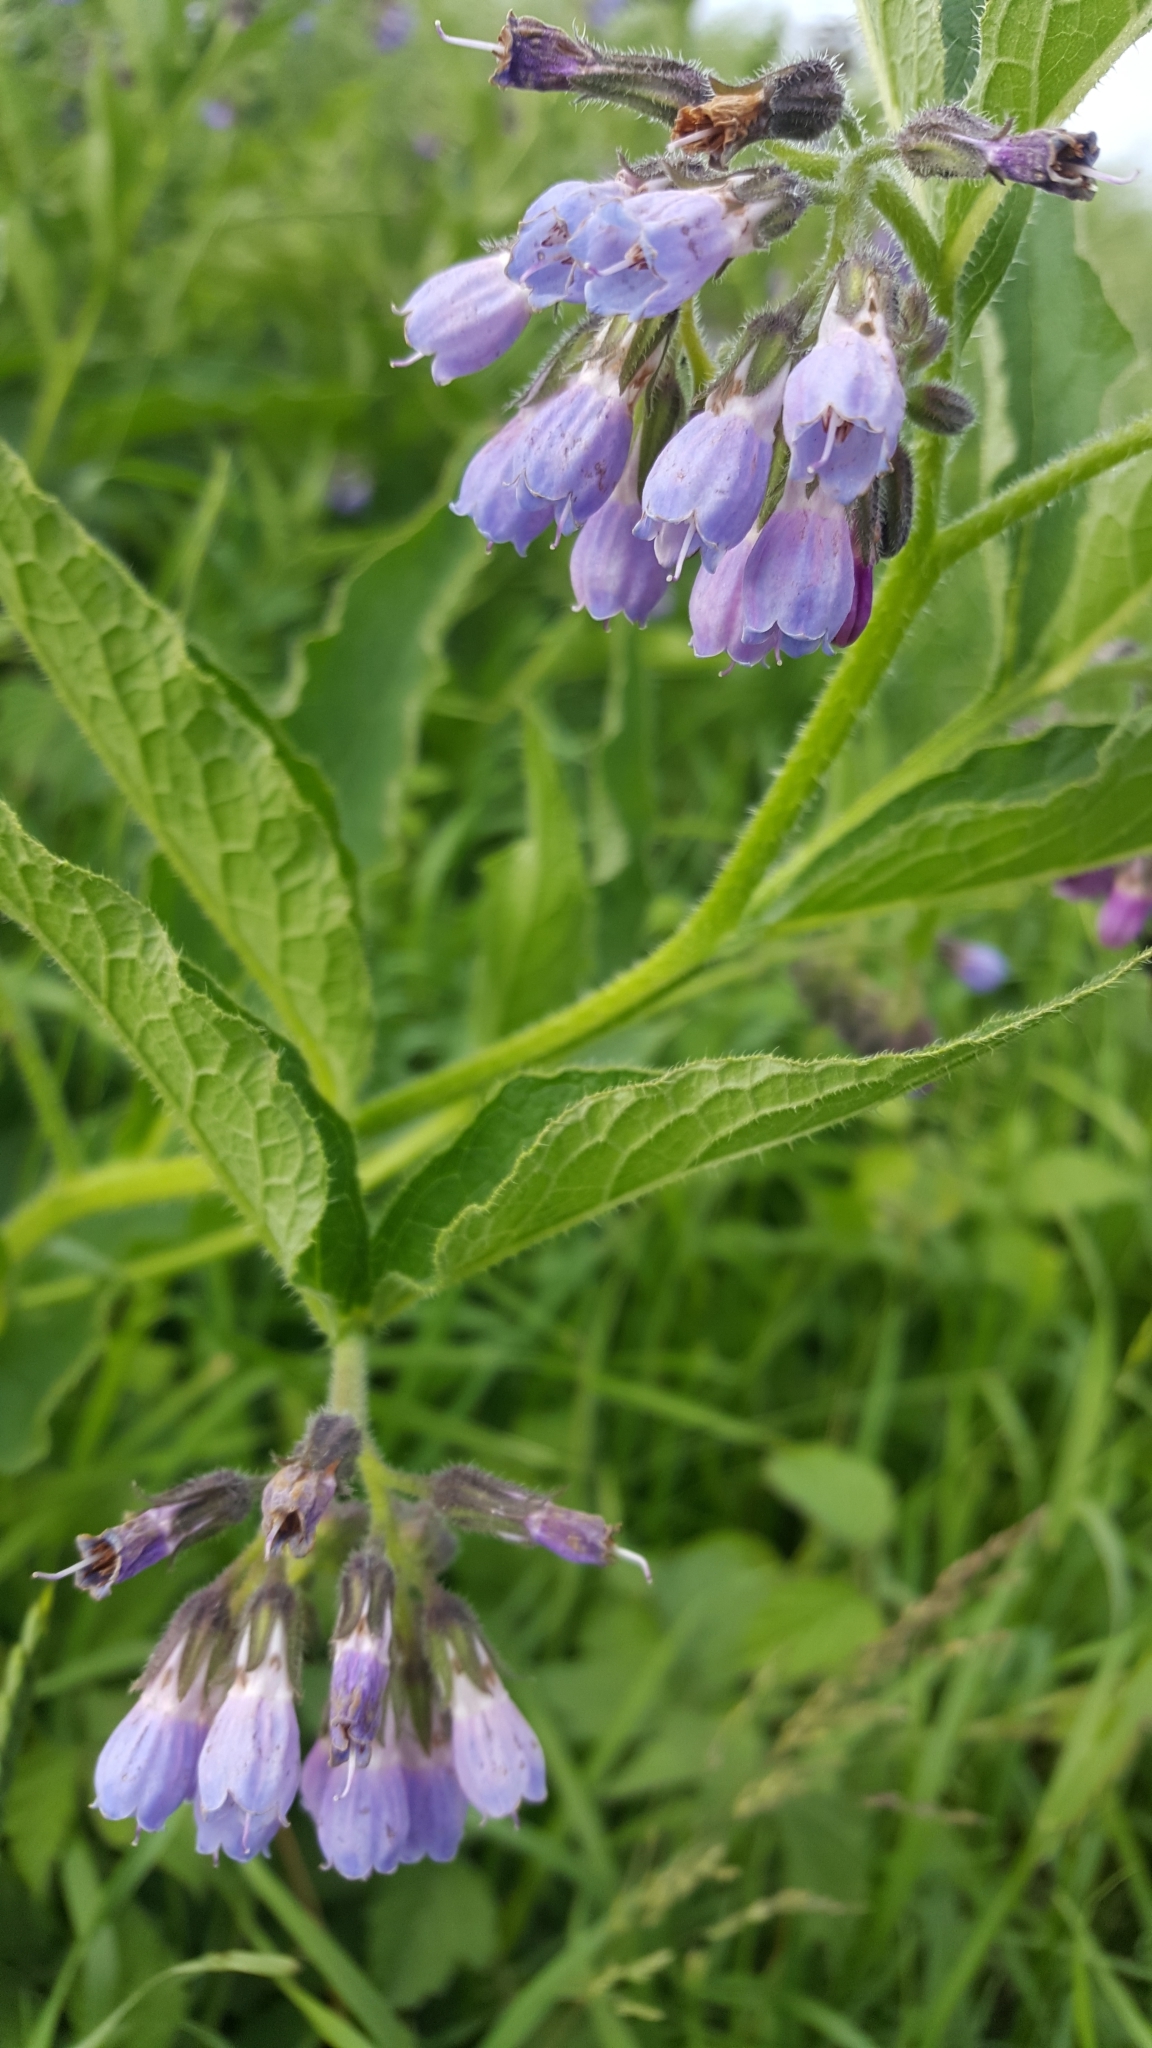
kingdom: Plantae
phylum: Tracheophyta
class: Magnoliopsida
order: Boraginales
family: Boraginaceae
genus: Symphytum
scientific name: Symphytum uplandicum
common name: Russian comfrey
